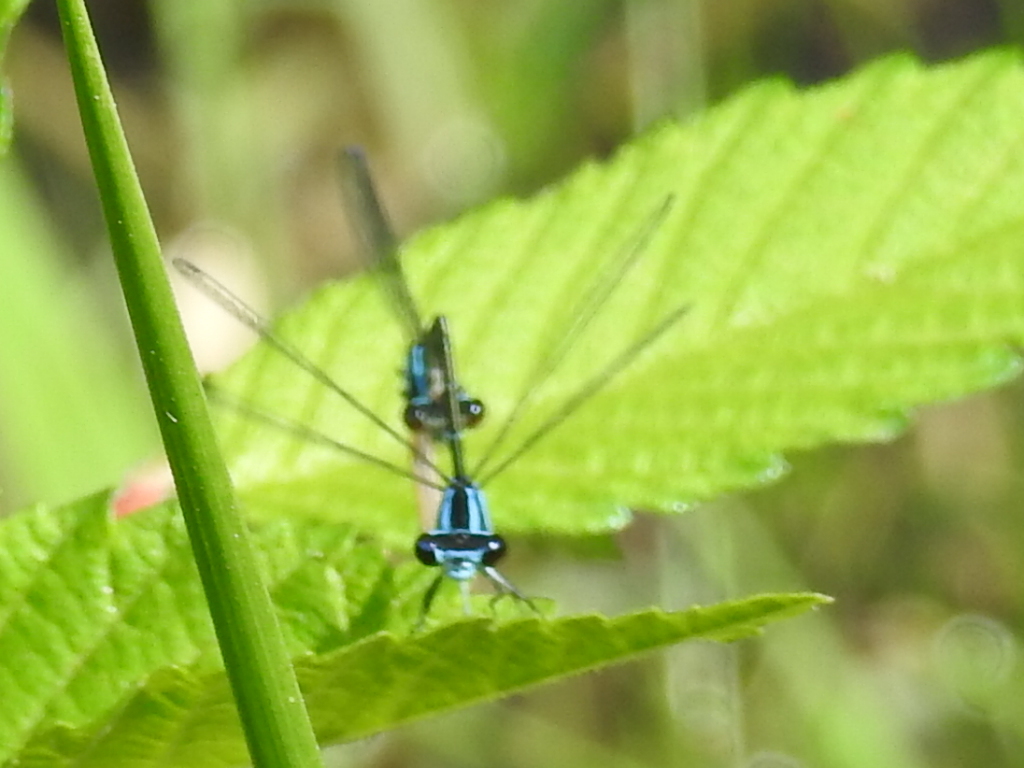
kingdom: Animalia
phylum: Arthropoda
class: Insecta
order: Odonata
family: Coenagrionidae
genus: Enallagma
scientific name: Enallagma geminatum
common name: Skimming bluet
